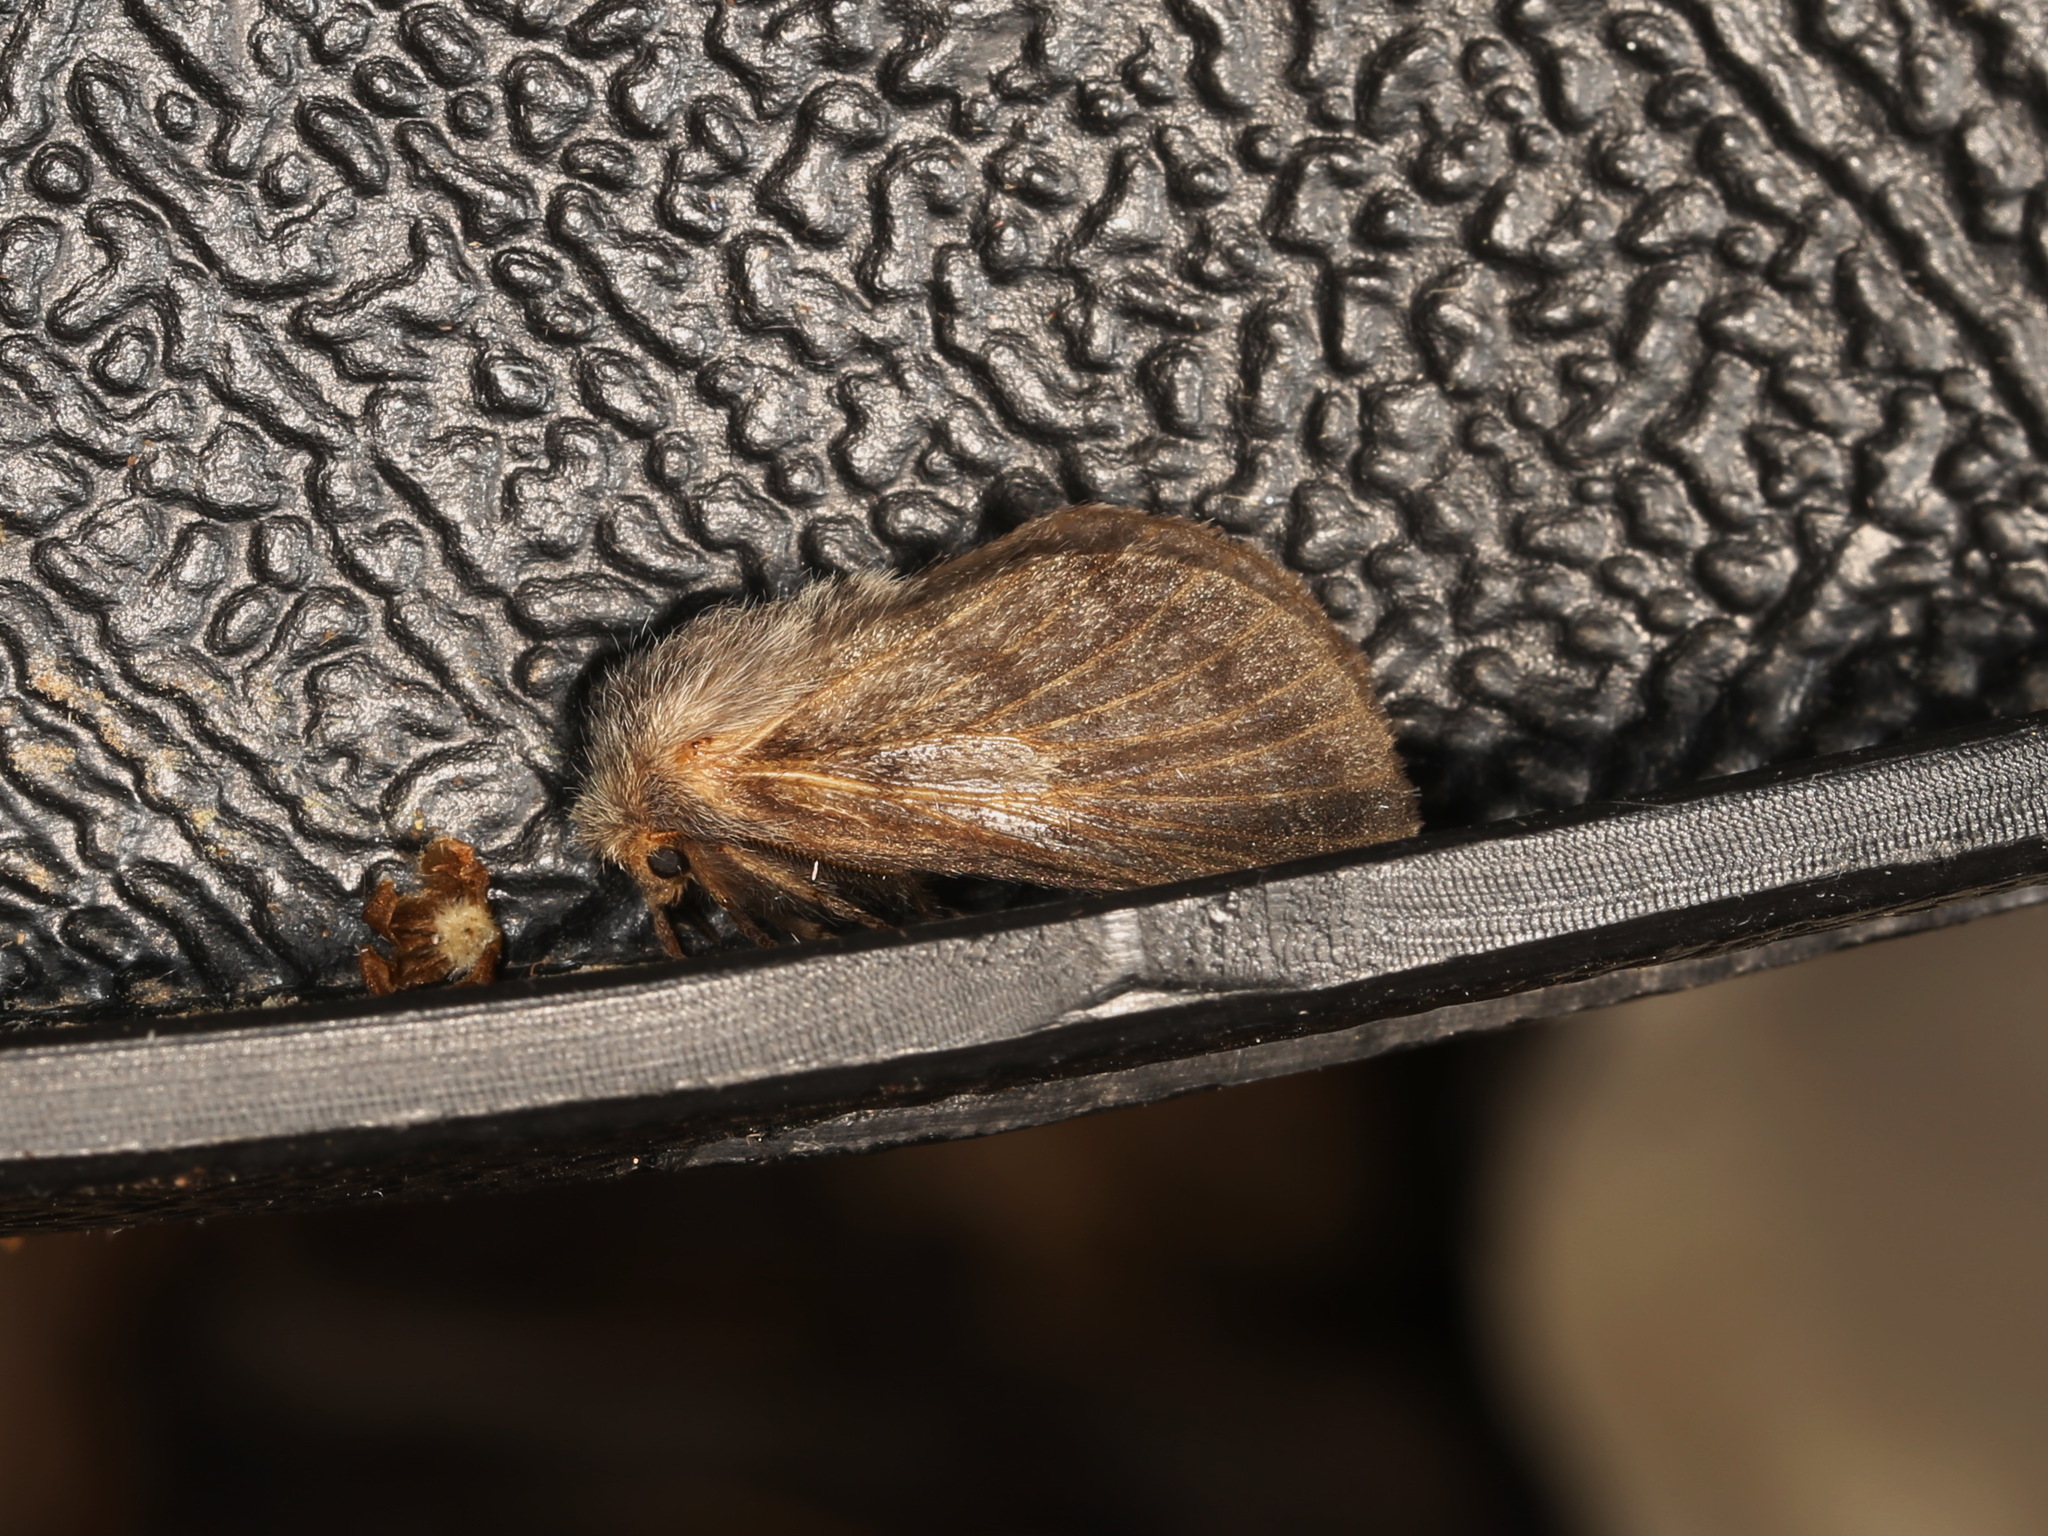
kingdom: Animalia
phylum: Arthropoda
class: Insecta
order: Lepidoptera
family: Lasiocampidae
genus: Pernattia
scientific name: Pernattia pusilla
